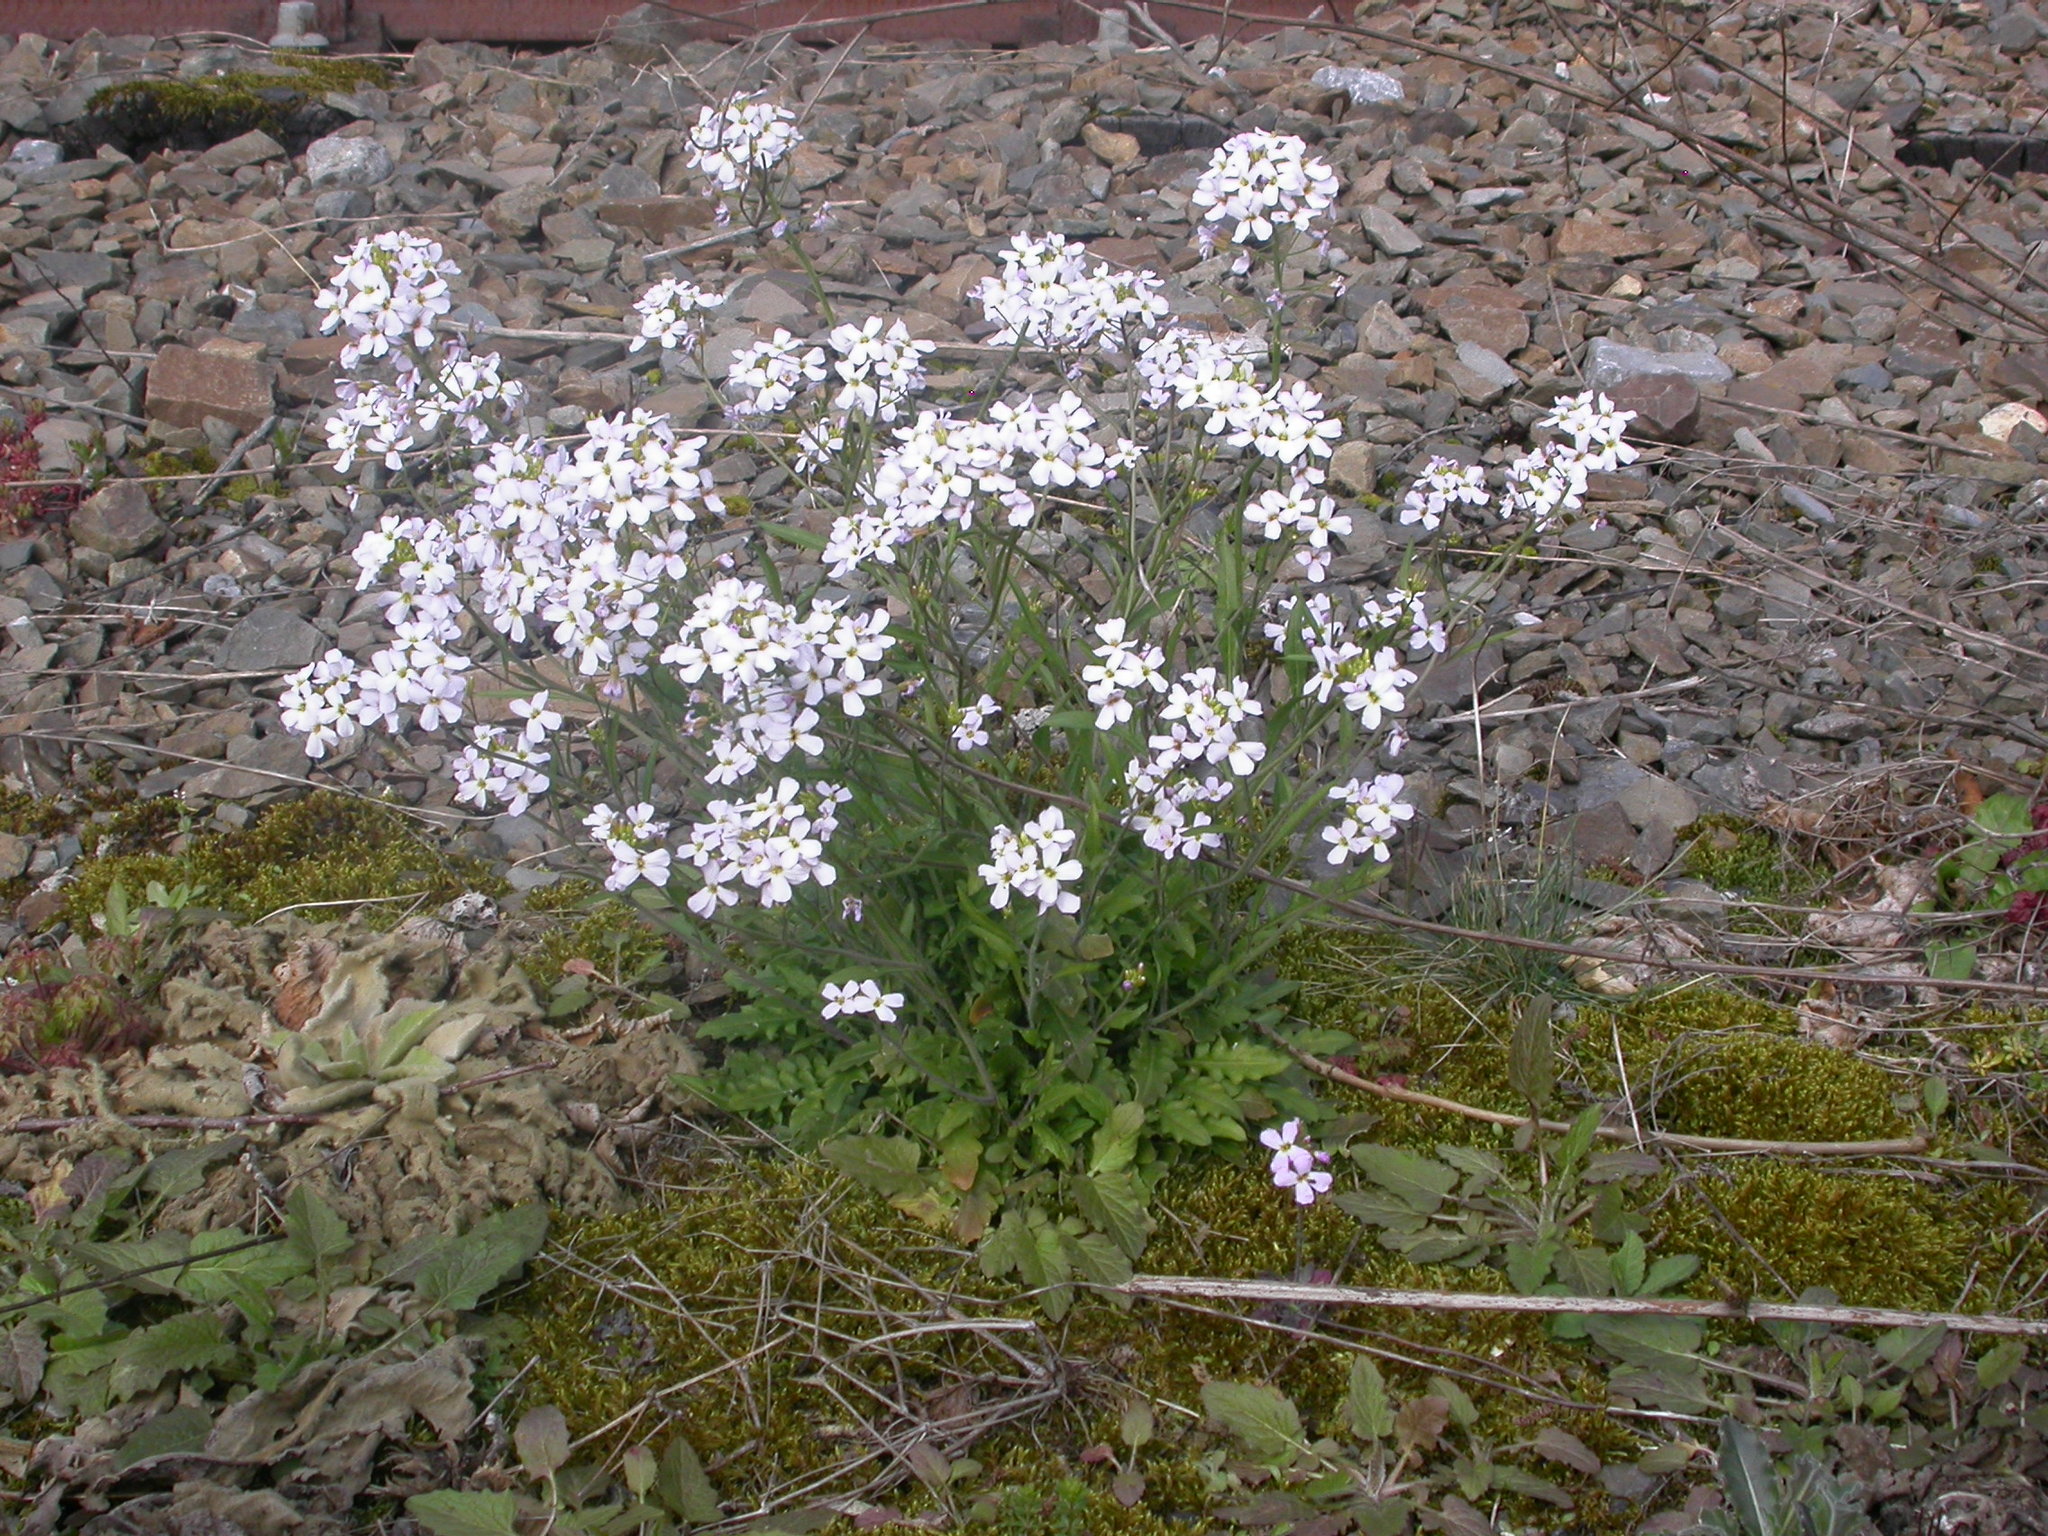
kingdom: Plantae
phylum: Tracheophyta
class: Magnoliopsida
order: Brassicales
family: Brassicaceae
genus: Arabidopsis
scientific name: Arabidopsis arenosa
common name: Sand rock-cress
